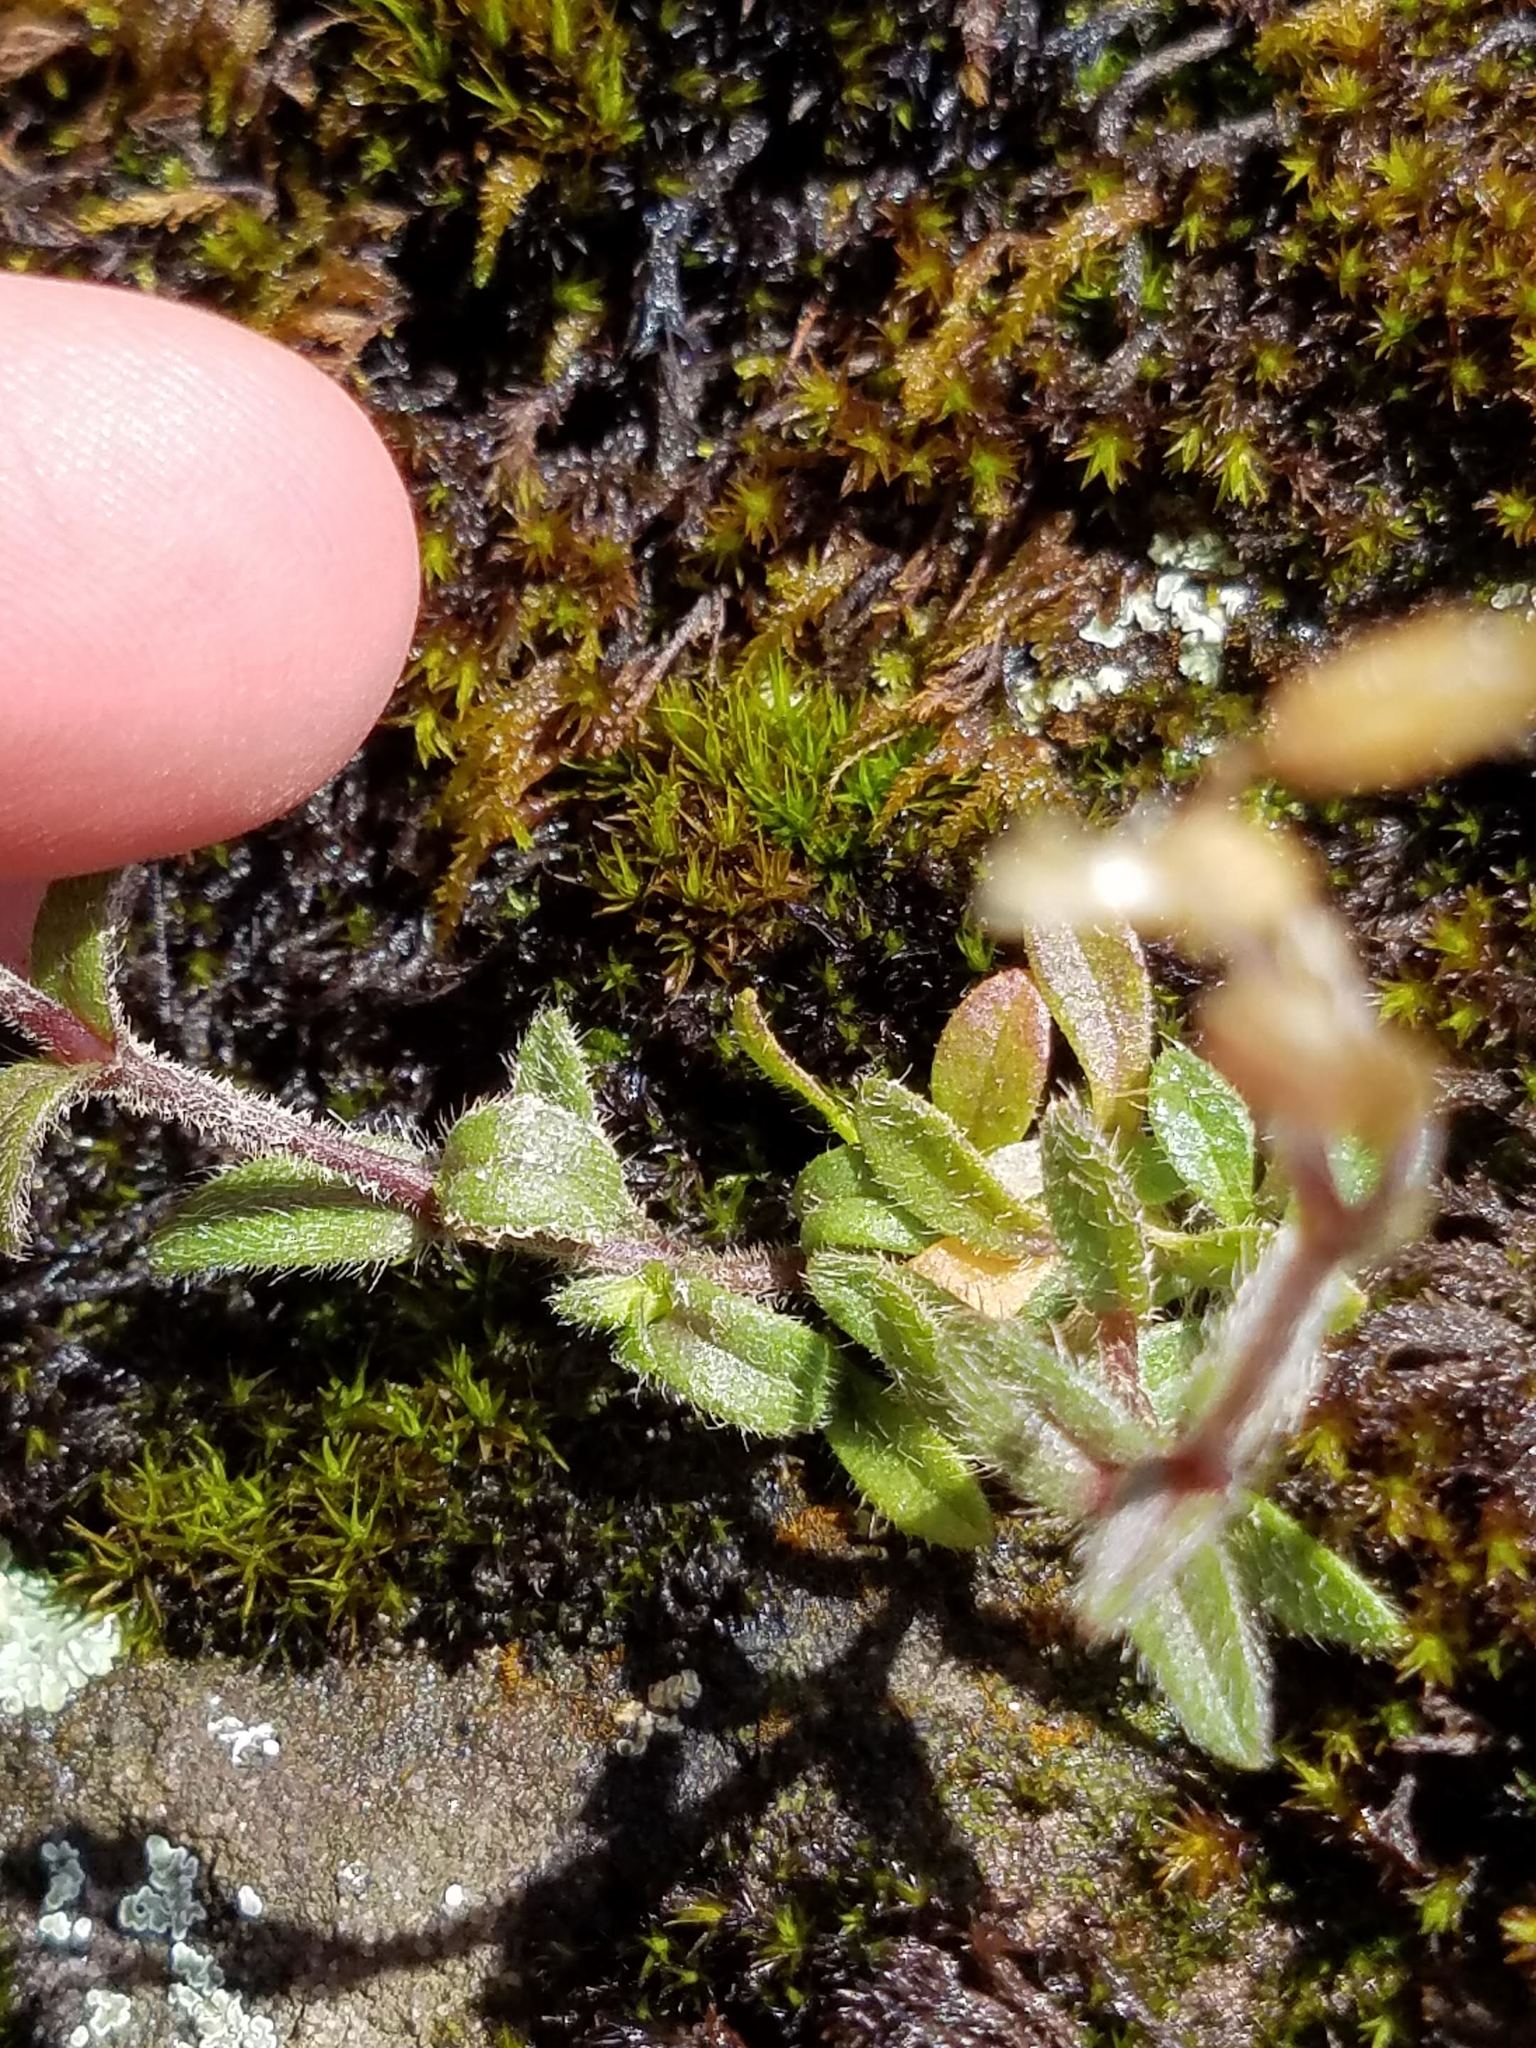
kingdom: Plantae
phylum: Tracheophyta
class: Magnoliopsida
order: Caryophyllales
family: Caryophyllaceae
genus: Cerastium
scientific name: Cerastium fontanum
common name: Common mouse-ear
